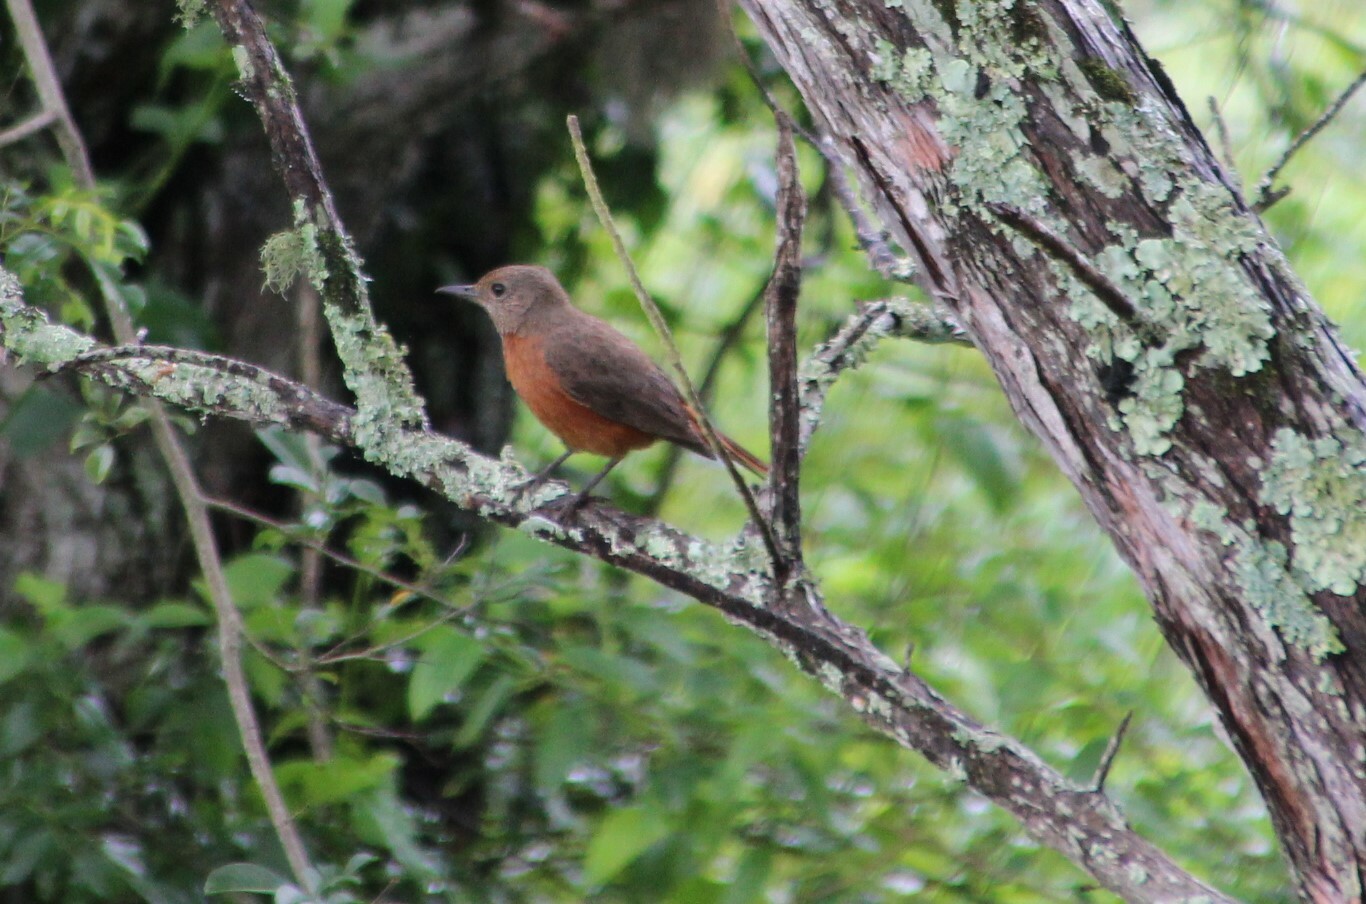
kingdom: Animalia
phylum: Chordata
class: Aves
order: Passeriformes
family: Muscicapidae
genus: Monticola
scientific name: Monticola rupestris
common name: Cape rock thrush
